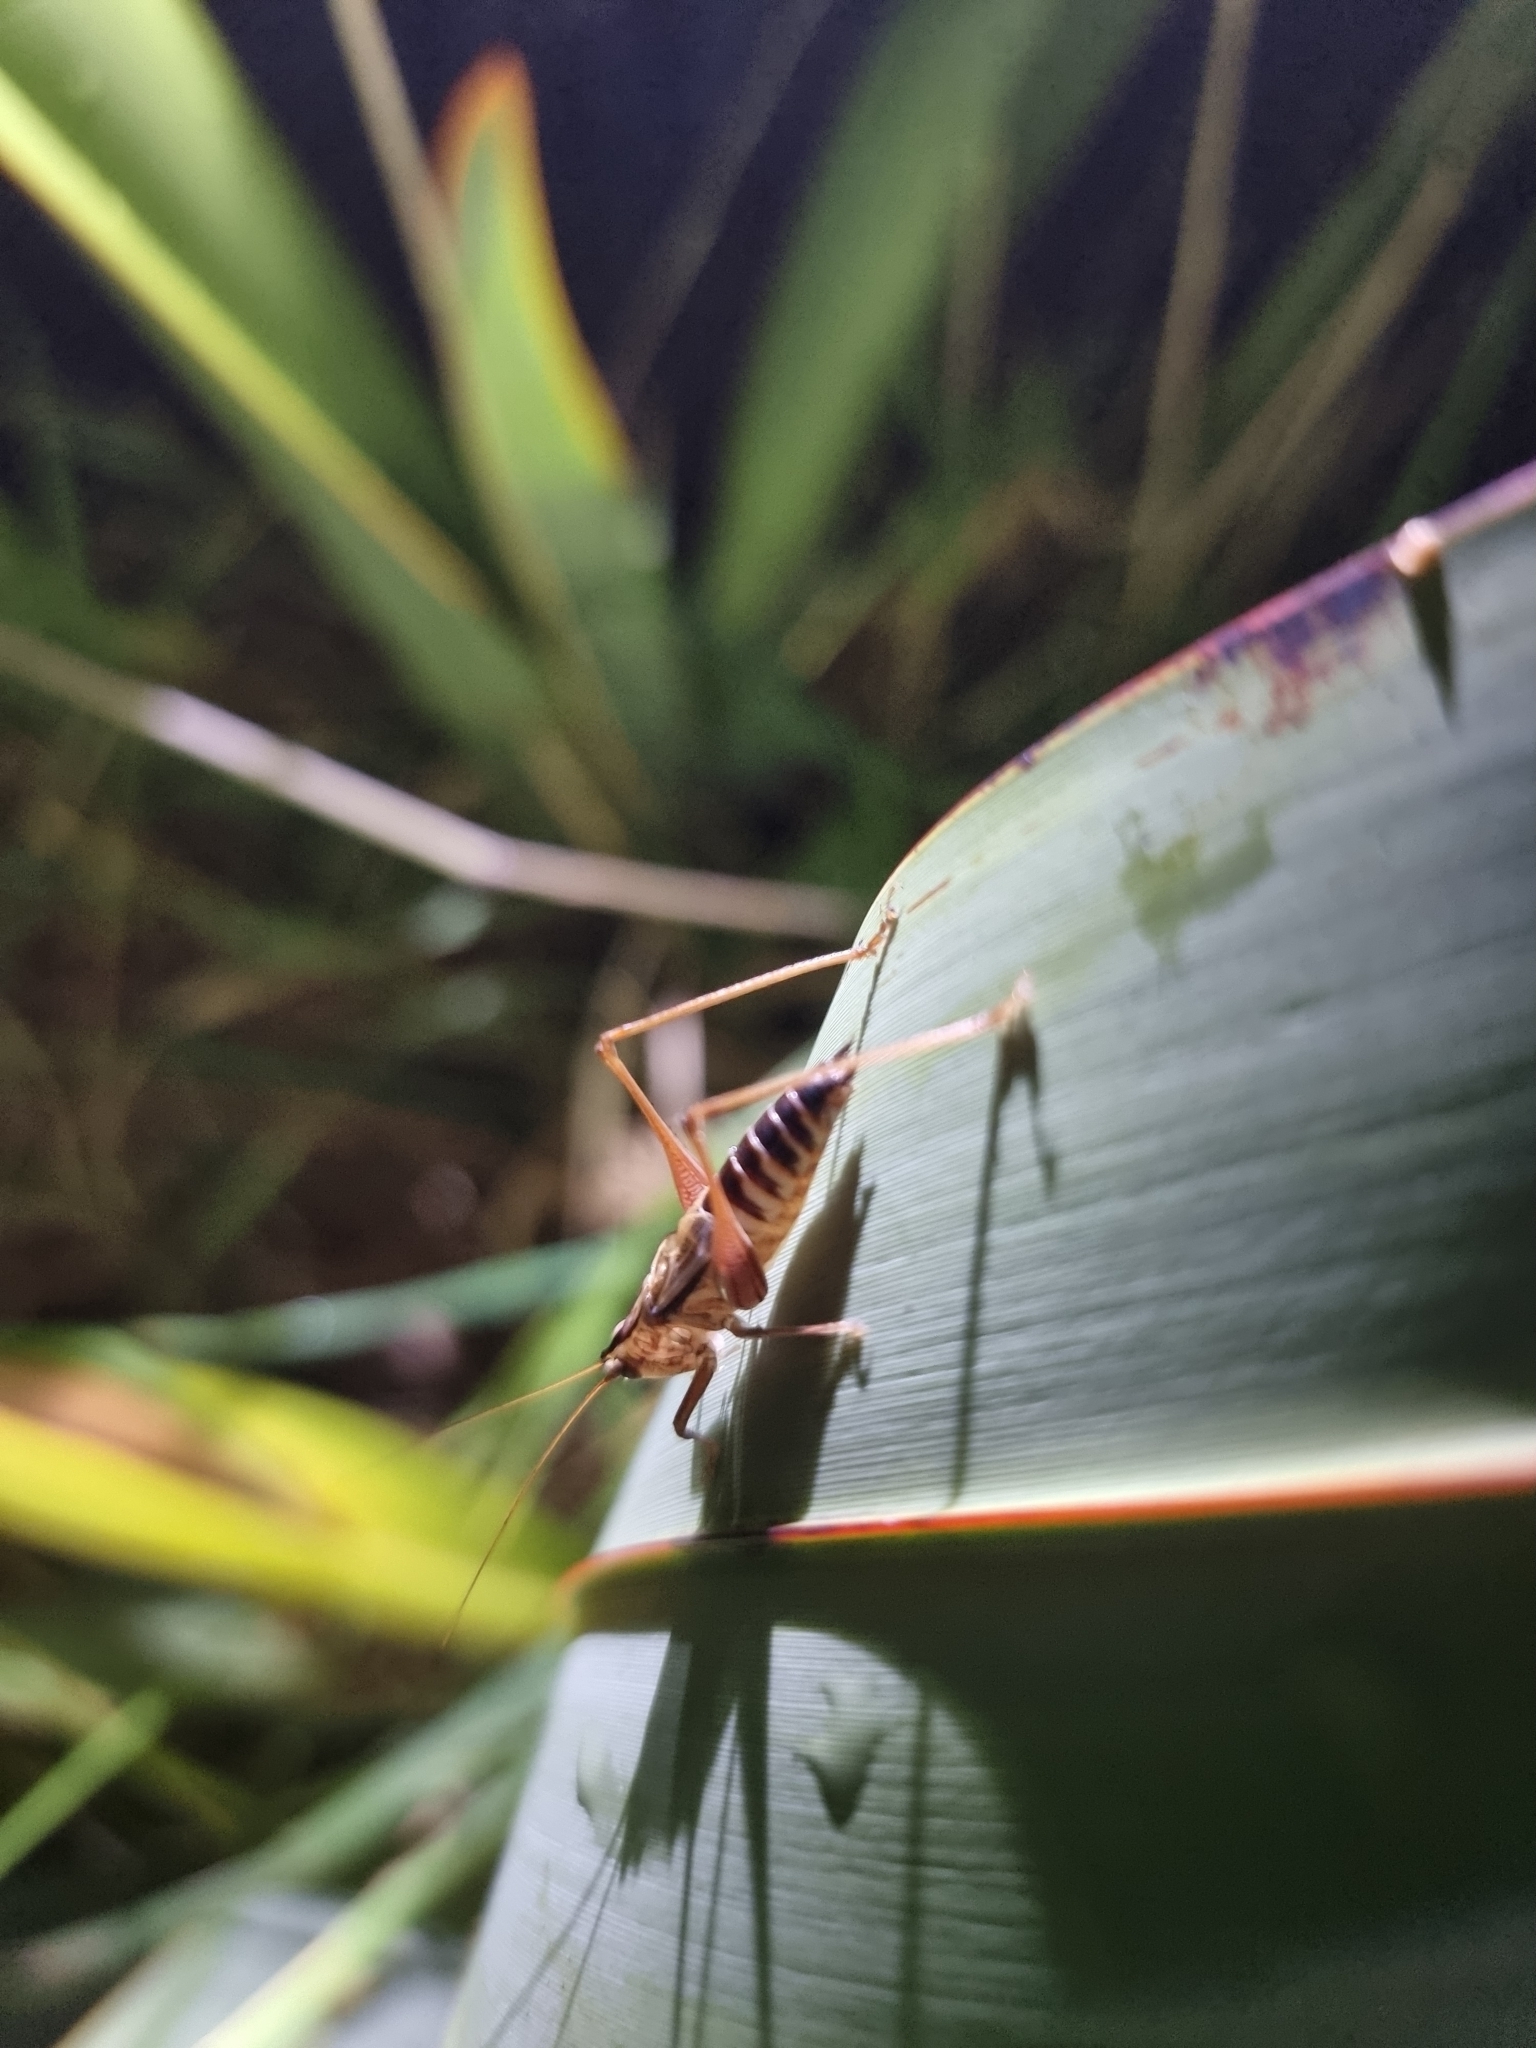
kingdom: Animalia
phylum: Arthropoda
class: Insecta
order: Orthoptera
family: Tettigoniidae
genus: Conocephalus
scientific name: Conocephalus semivittatus
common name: Blackish meadow katydid
